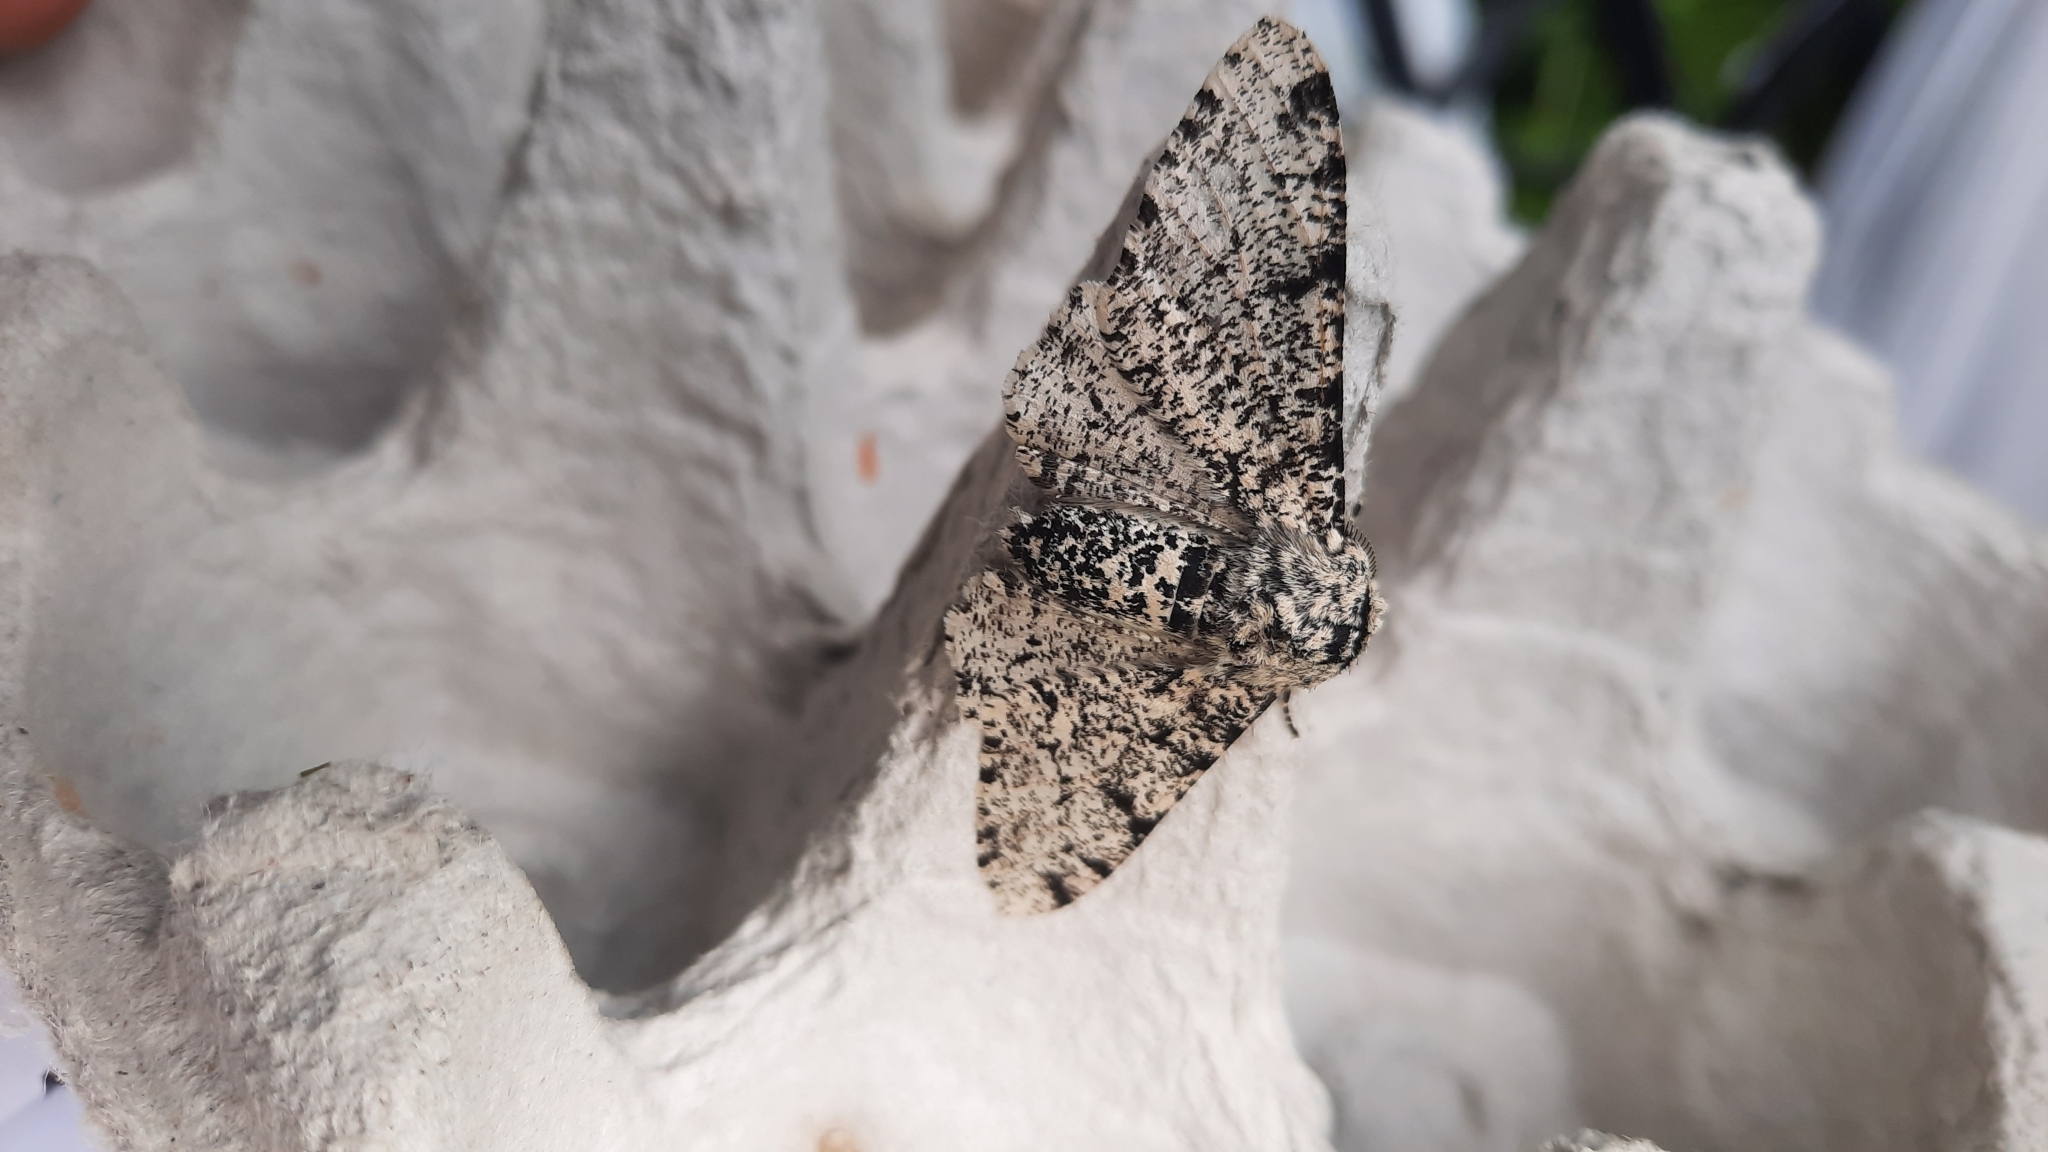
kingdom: Animalia
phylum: Arthropoda
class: Insecta
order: Lepidoptera
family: Geometridae
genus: Biston
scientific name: Biston betularia
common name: Peppered moth
